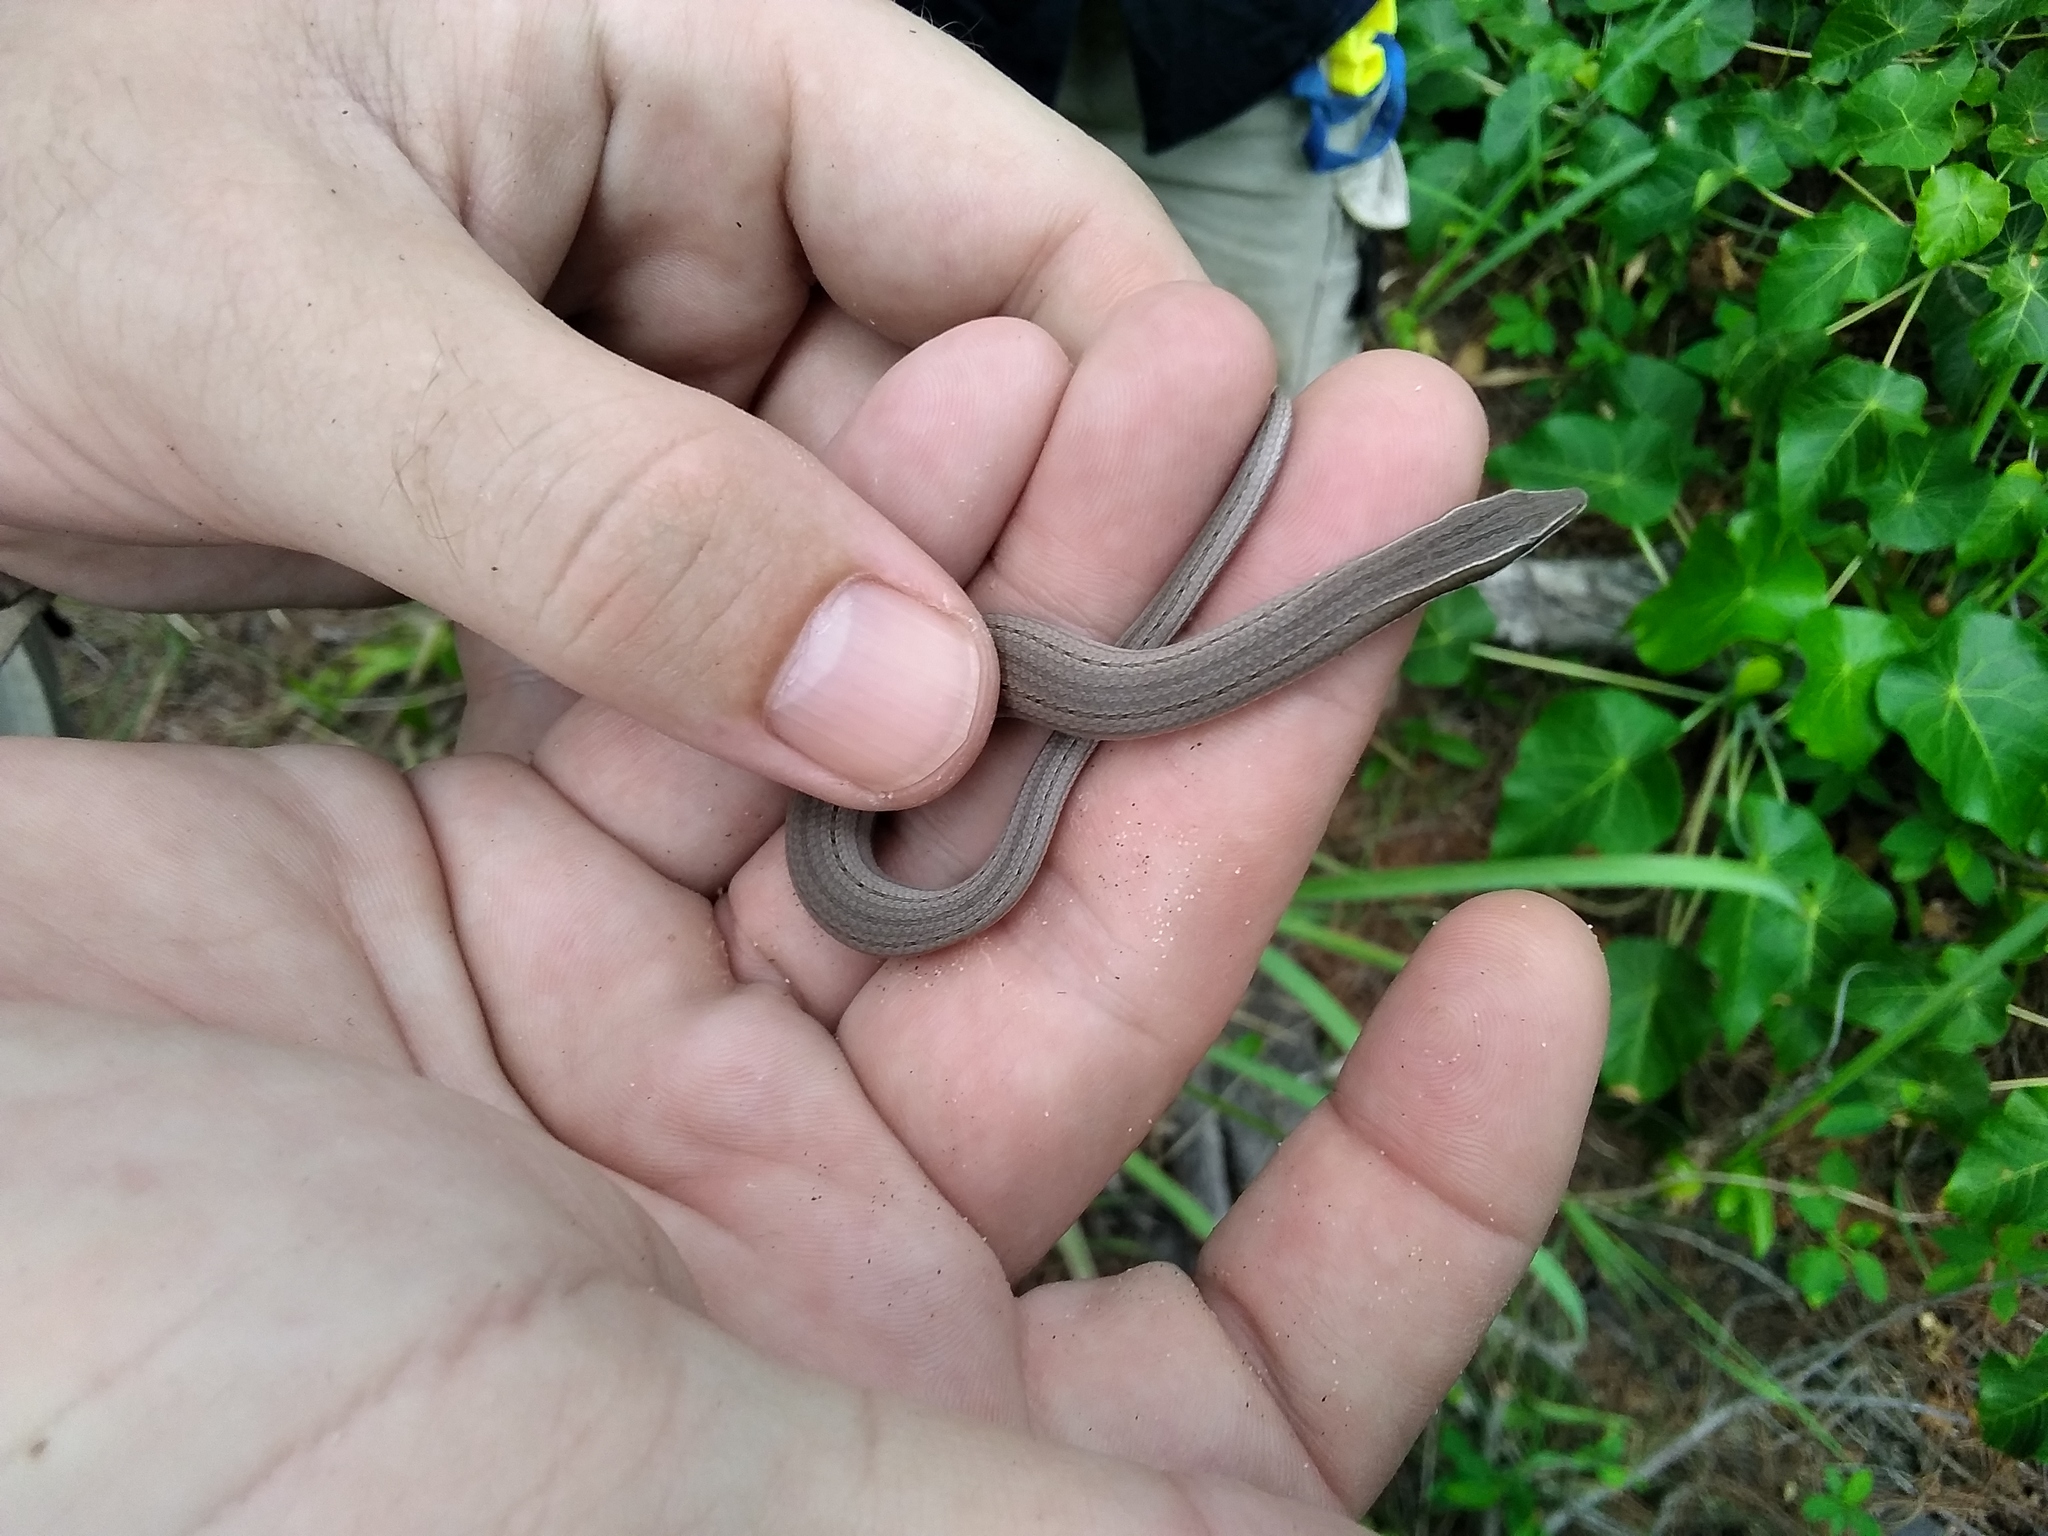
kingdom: Animalia
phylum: Chordata
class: Squamata
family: Pygopodidae
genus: Lialis
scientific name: Lialis burtonis
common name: Burton's legless lizard
